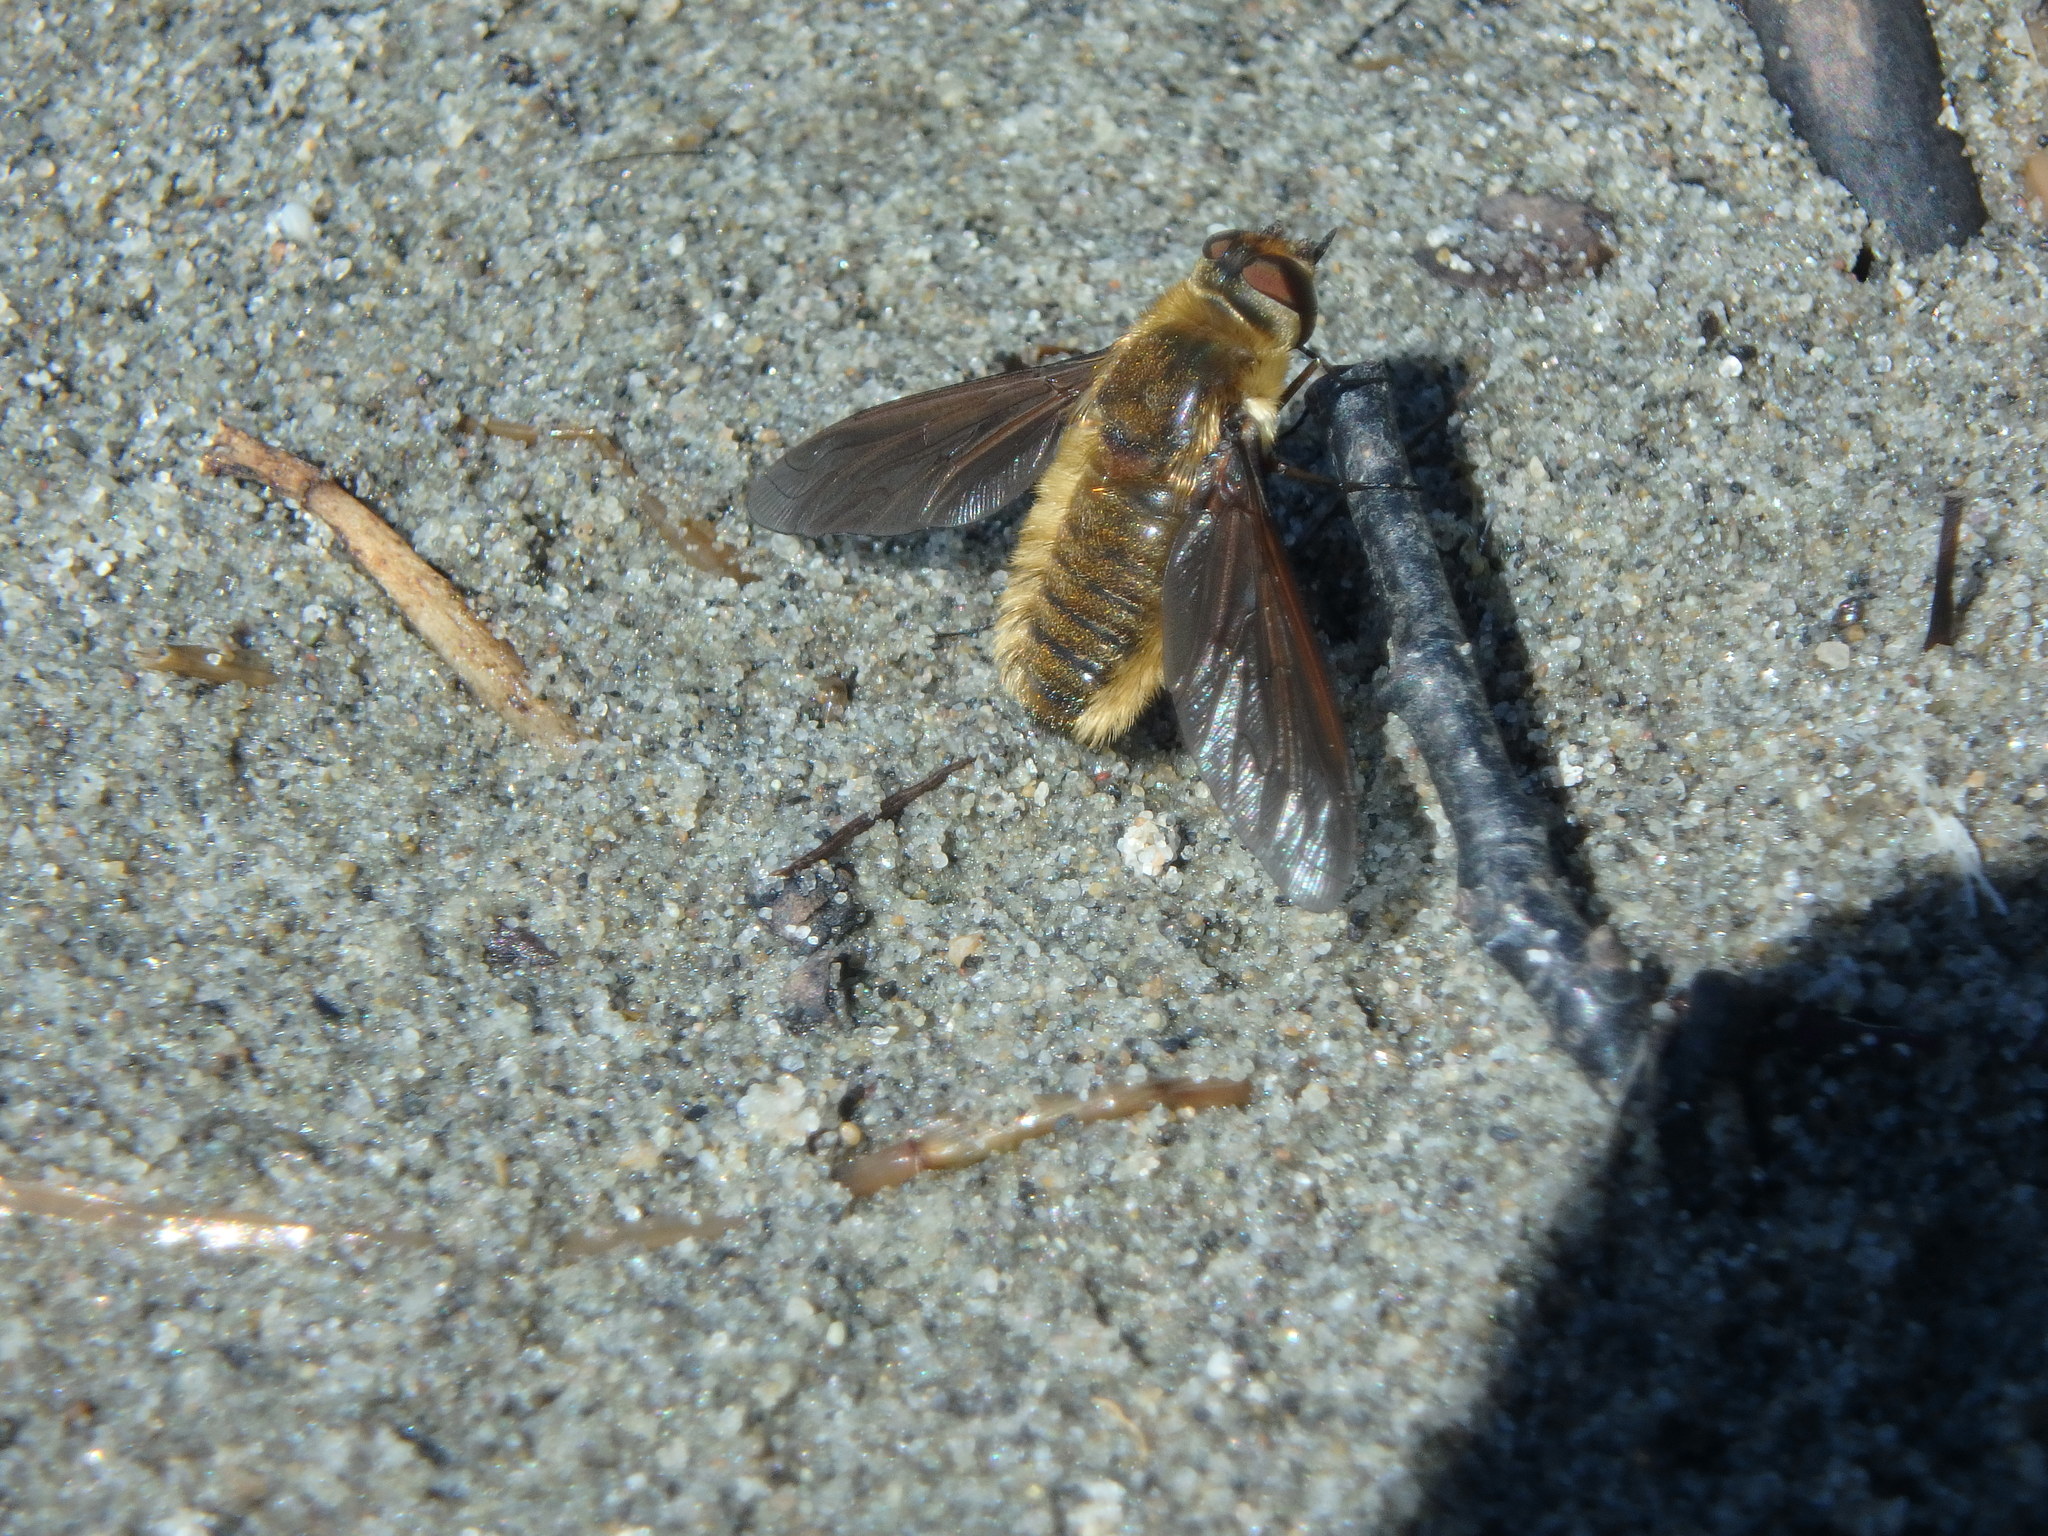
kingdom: Animalia
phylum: Arthropoda
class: Insecta
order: Diptera
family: Bombyliidae
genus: Poecilanthrax
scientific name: Poecilanthrax tegminipennis
